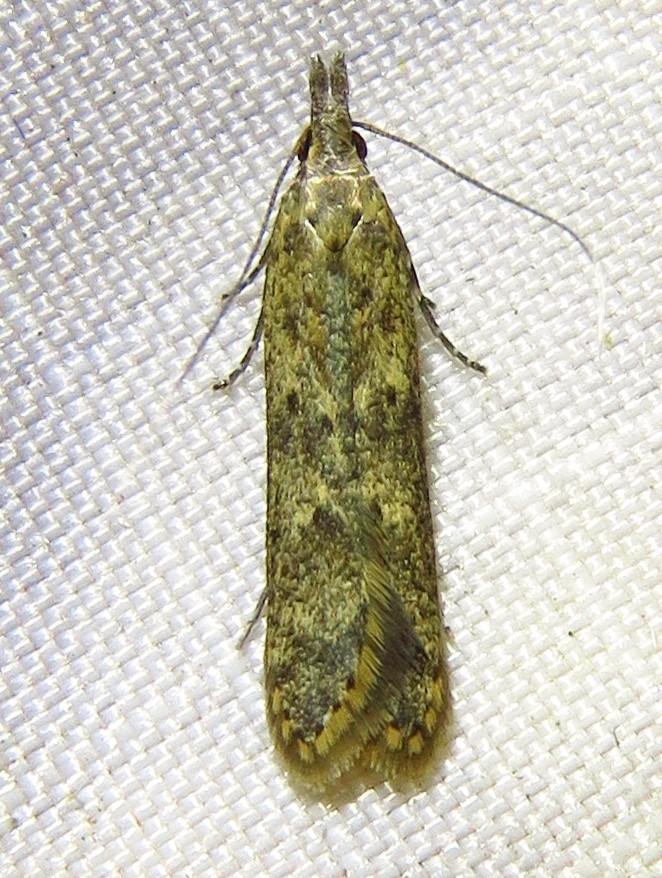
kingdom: Animalia
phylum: Arthropoda
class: Insecta
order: Lepidoptera
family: Gelechiidae
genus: Dichomeris
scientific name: Dichomeris ligulella
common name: Moth
